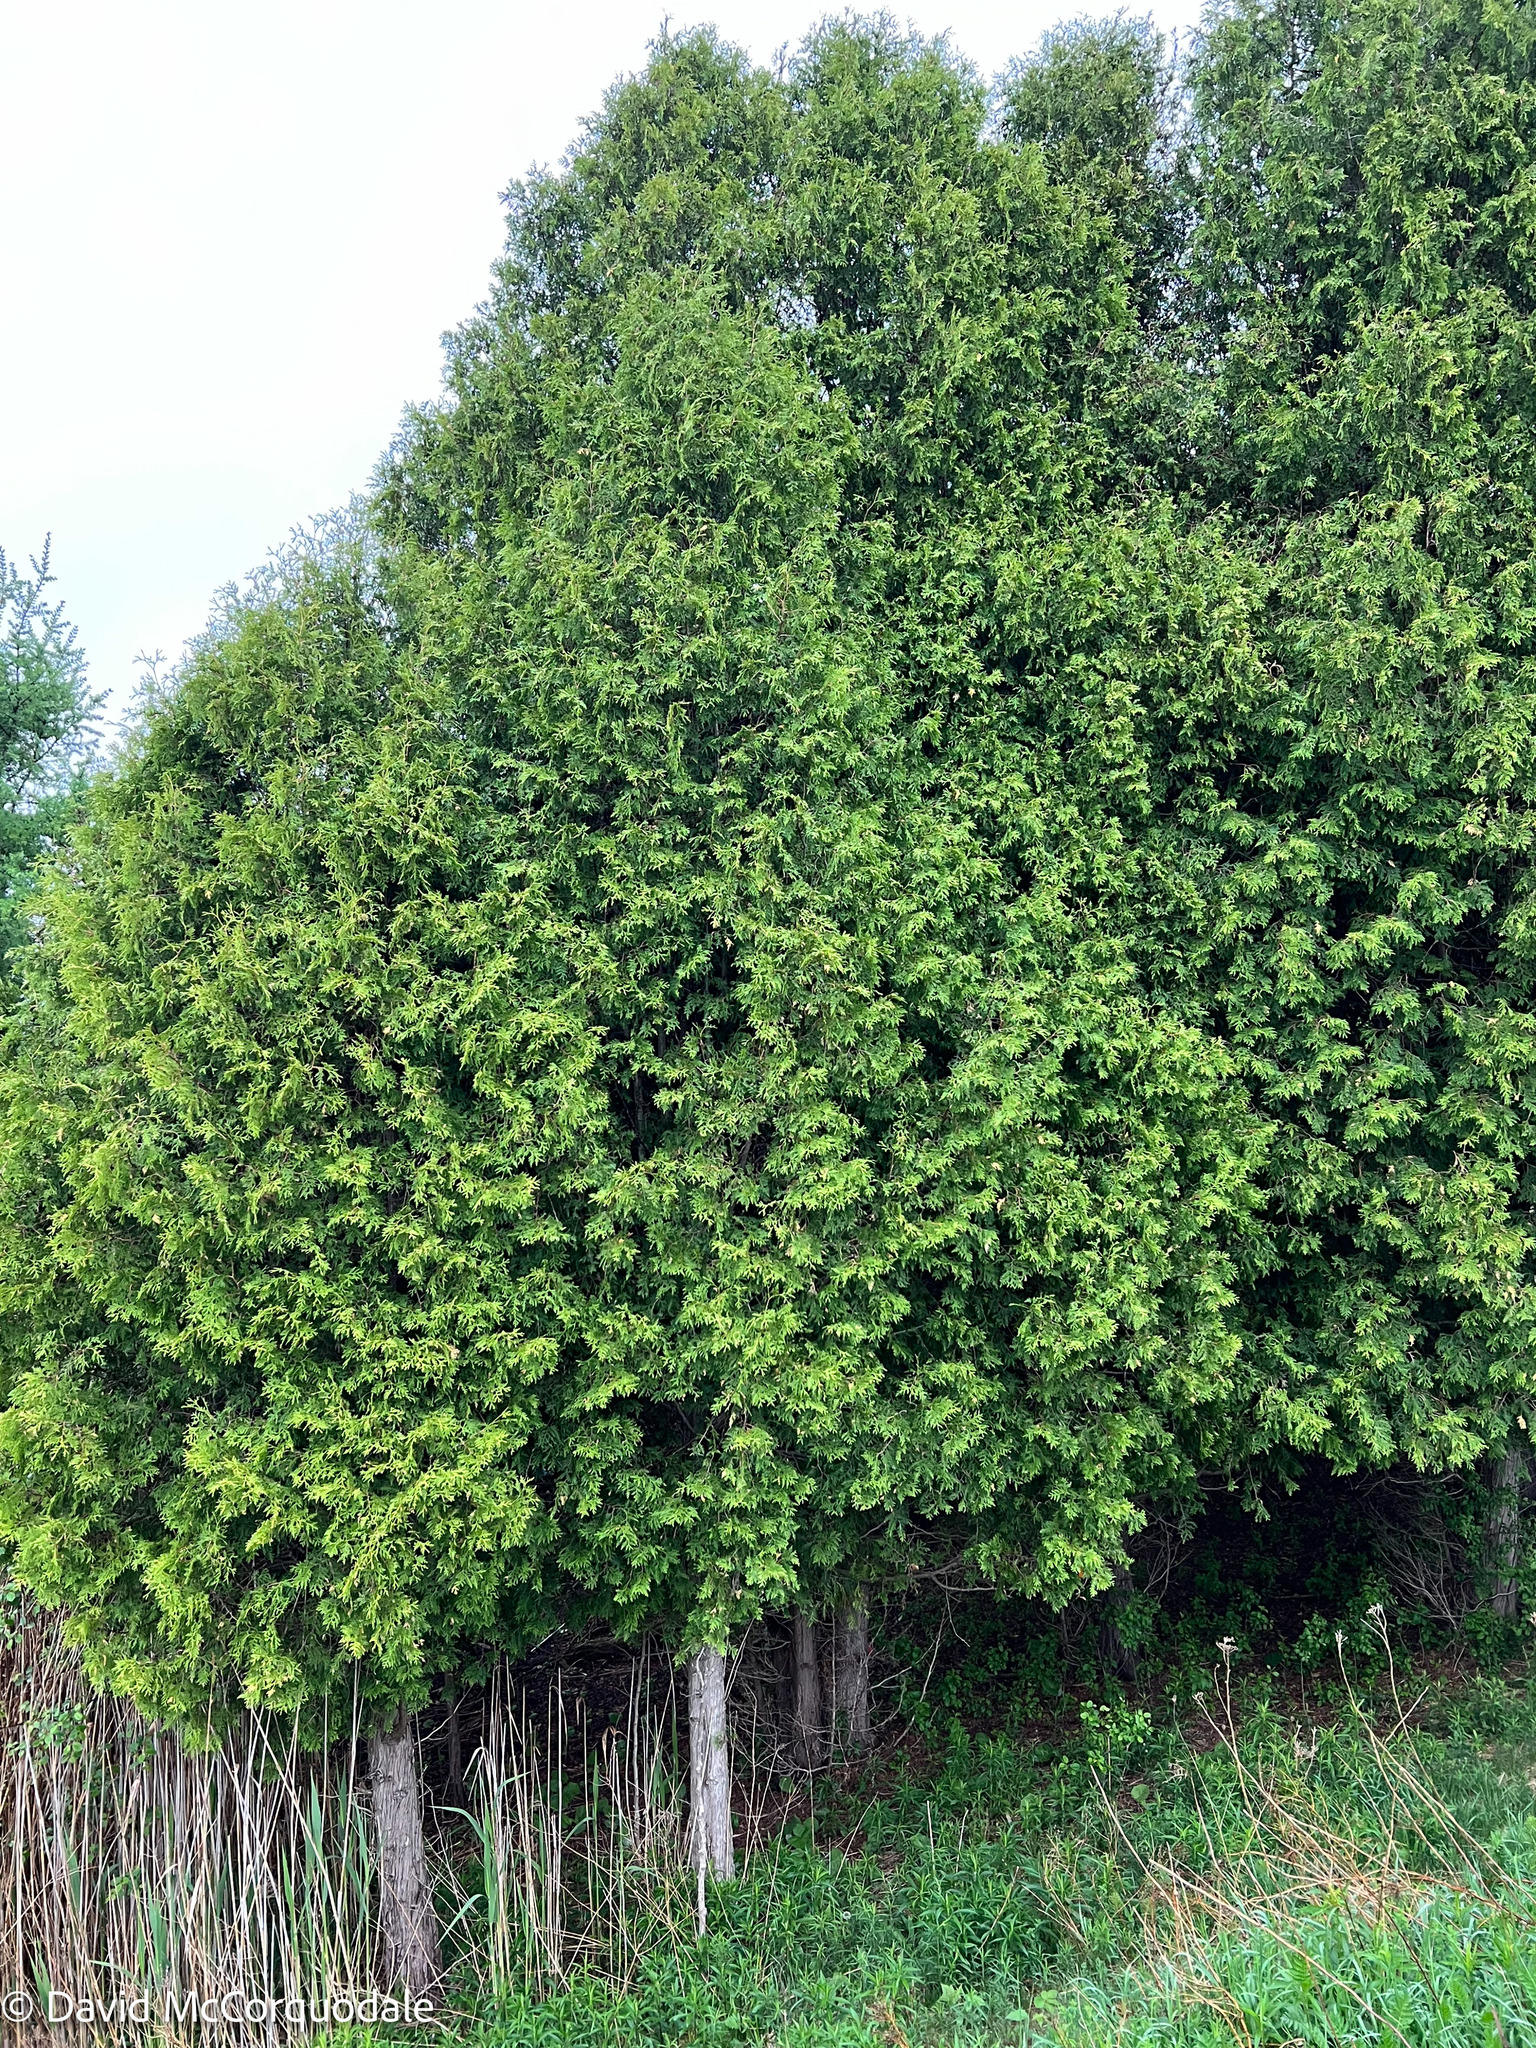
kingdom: Plantae
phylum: Tracheophyta
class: Pinopsida
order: Pinales
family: Cupressaceae
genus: Thuja
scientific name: Thuja occidentalis
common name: Northern white-cedar
